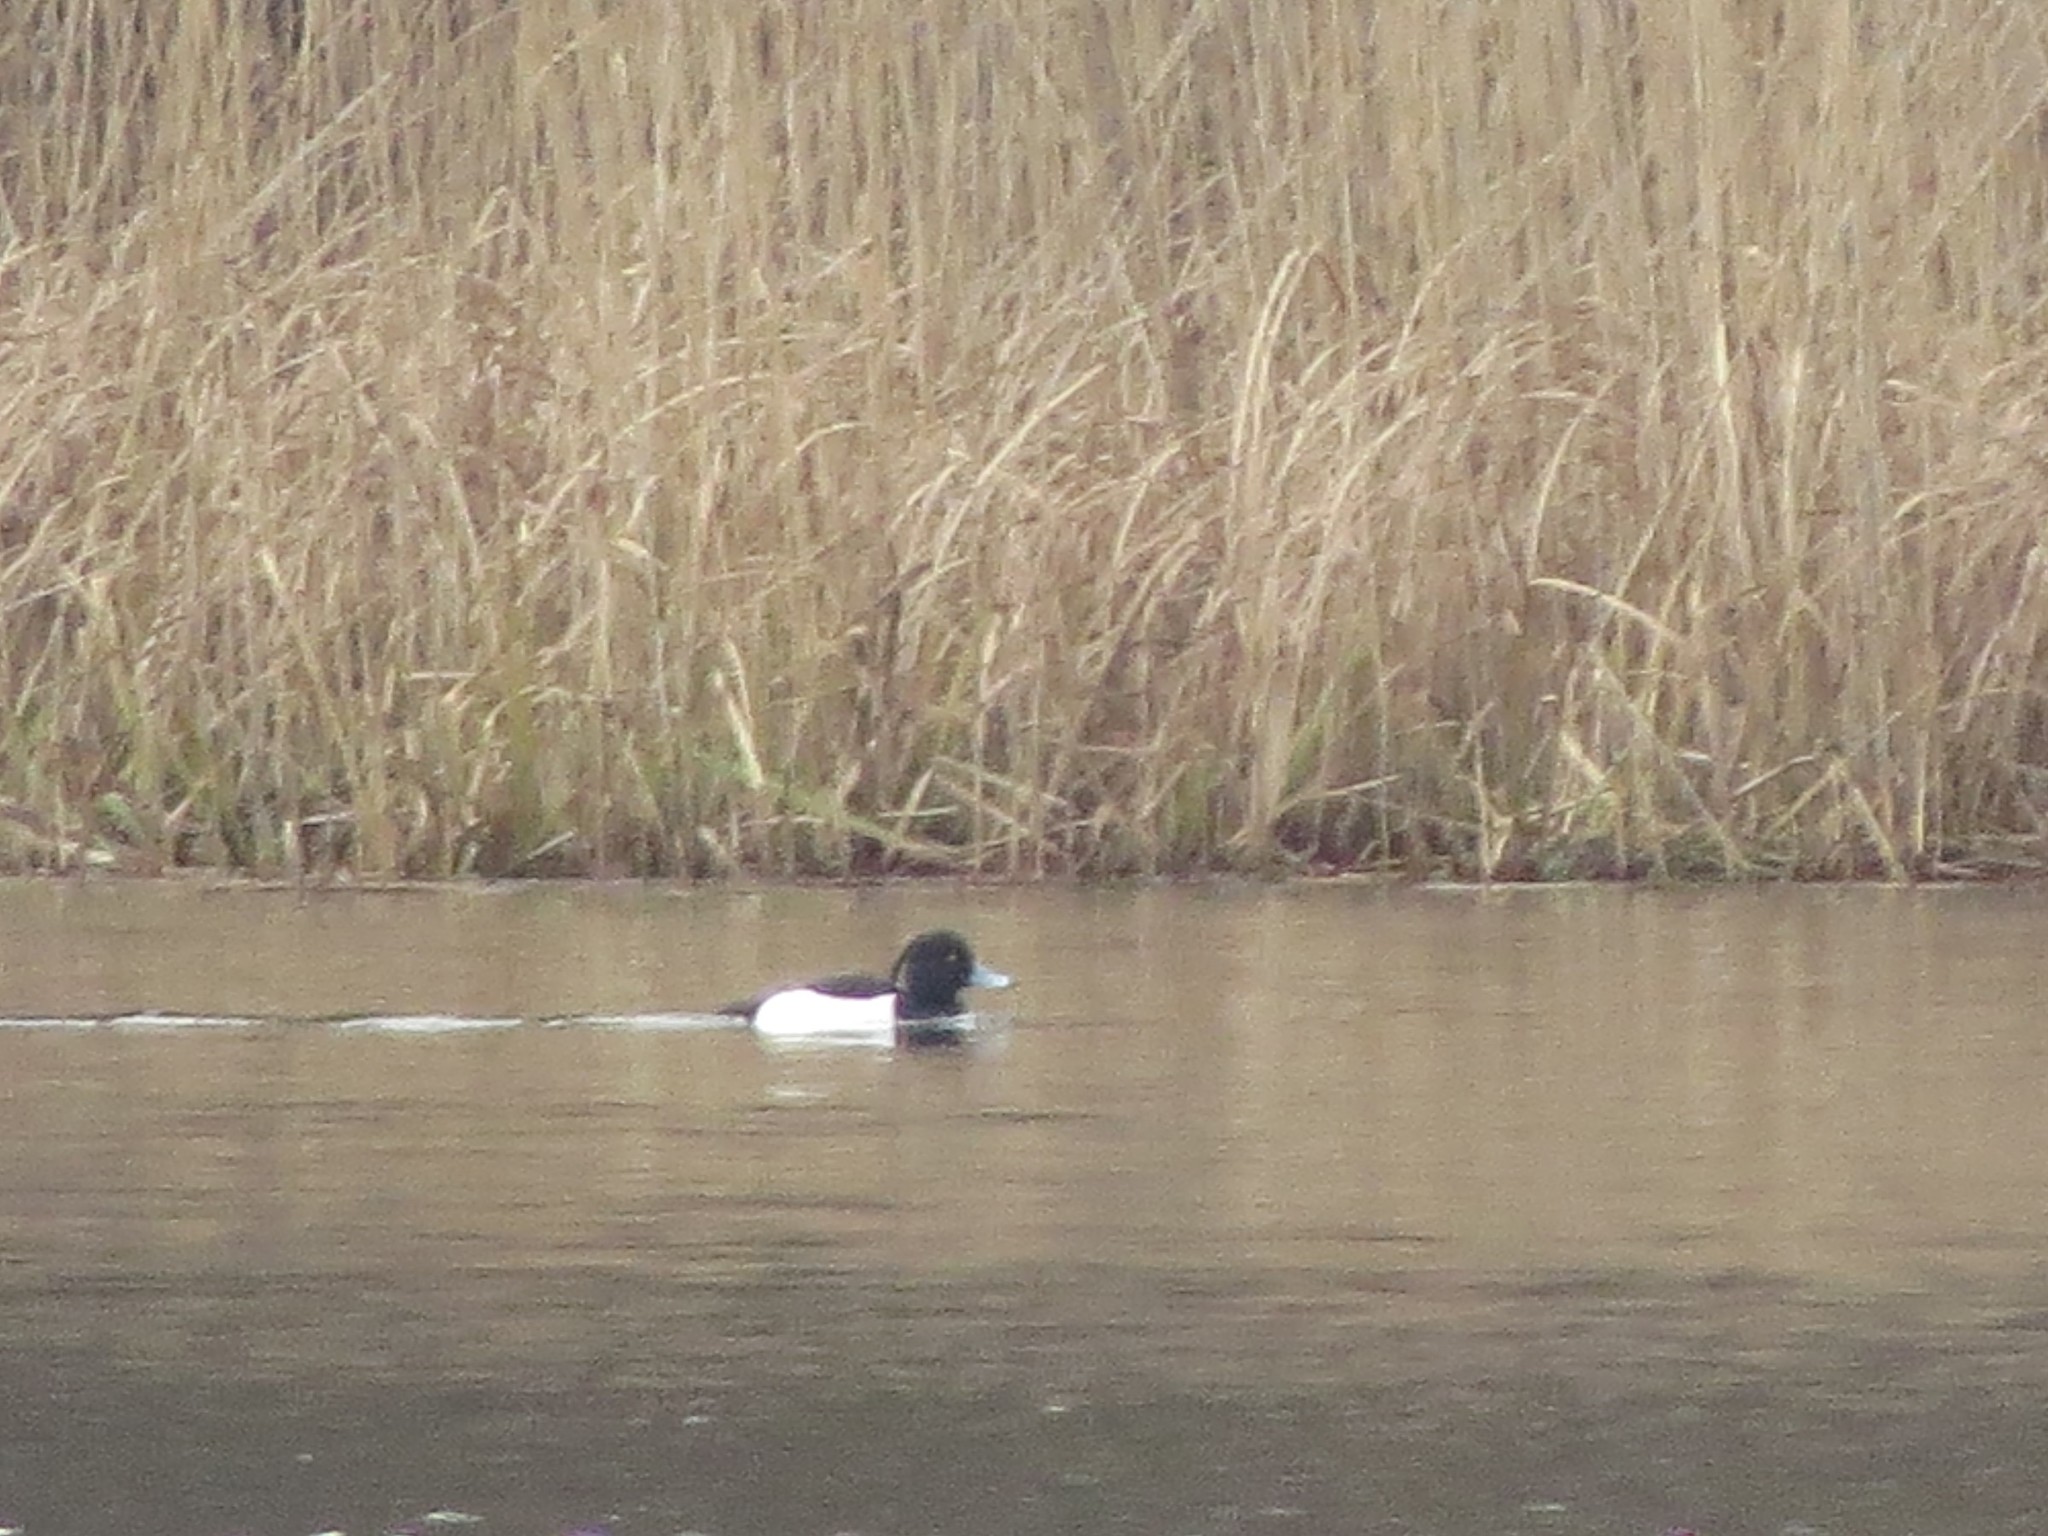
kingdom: Animalia
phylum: Chordata
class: Aves
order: Anseriformes
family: Anatidae
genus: Aythya
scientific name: Aythya fuligula
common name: Tufted duck
